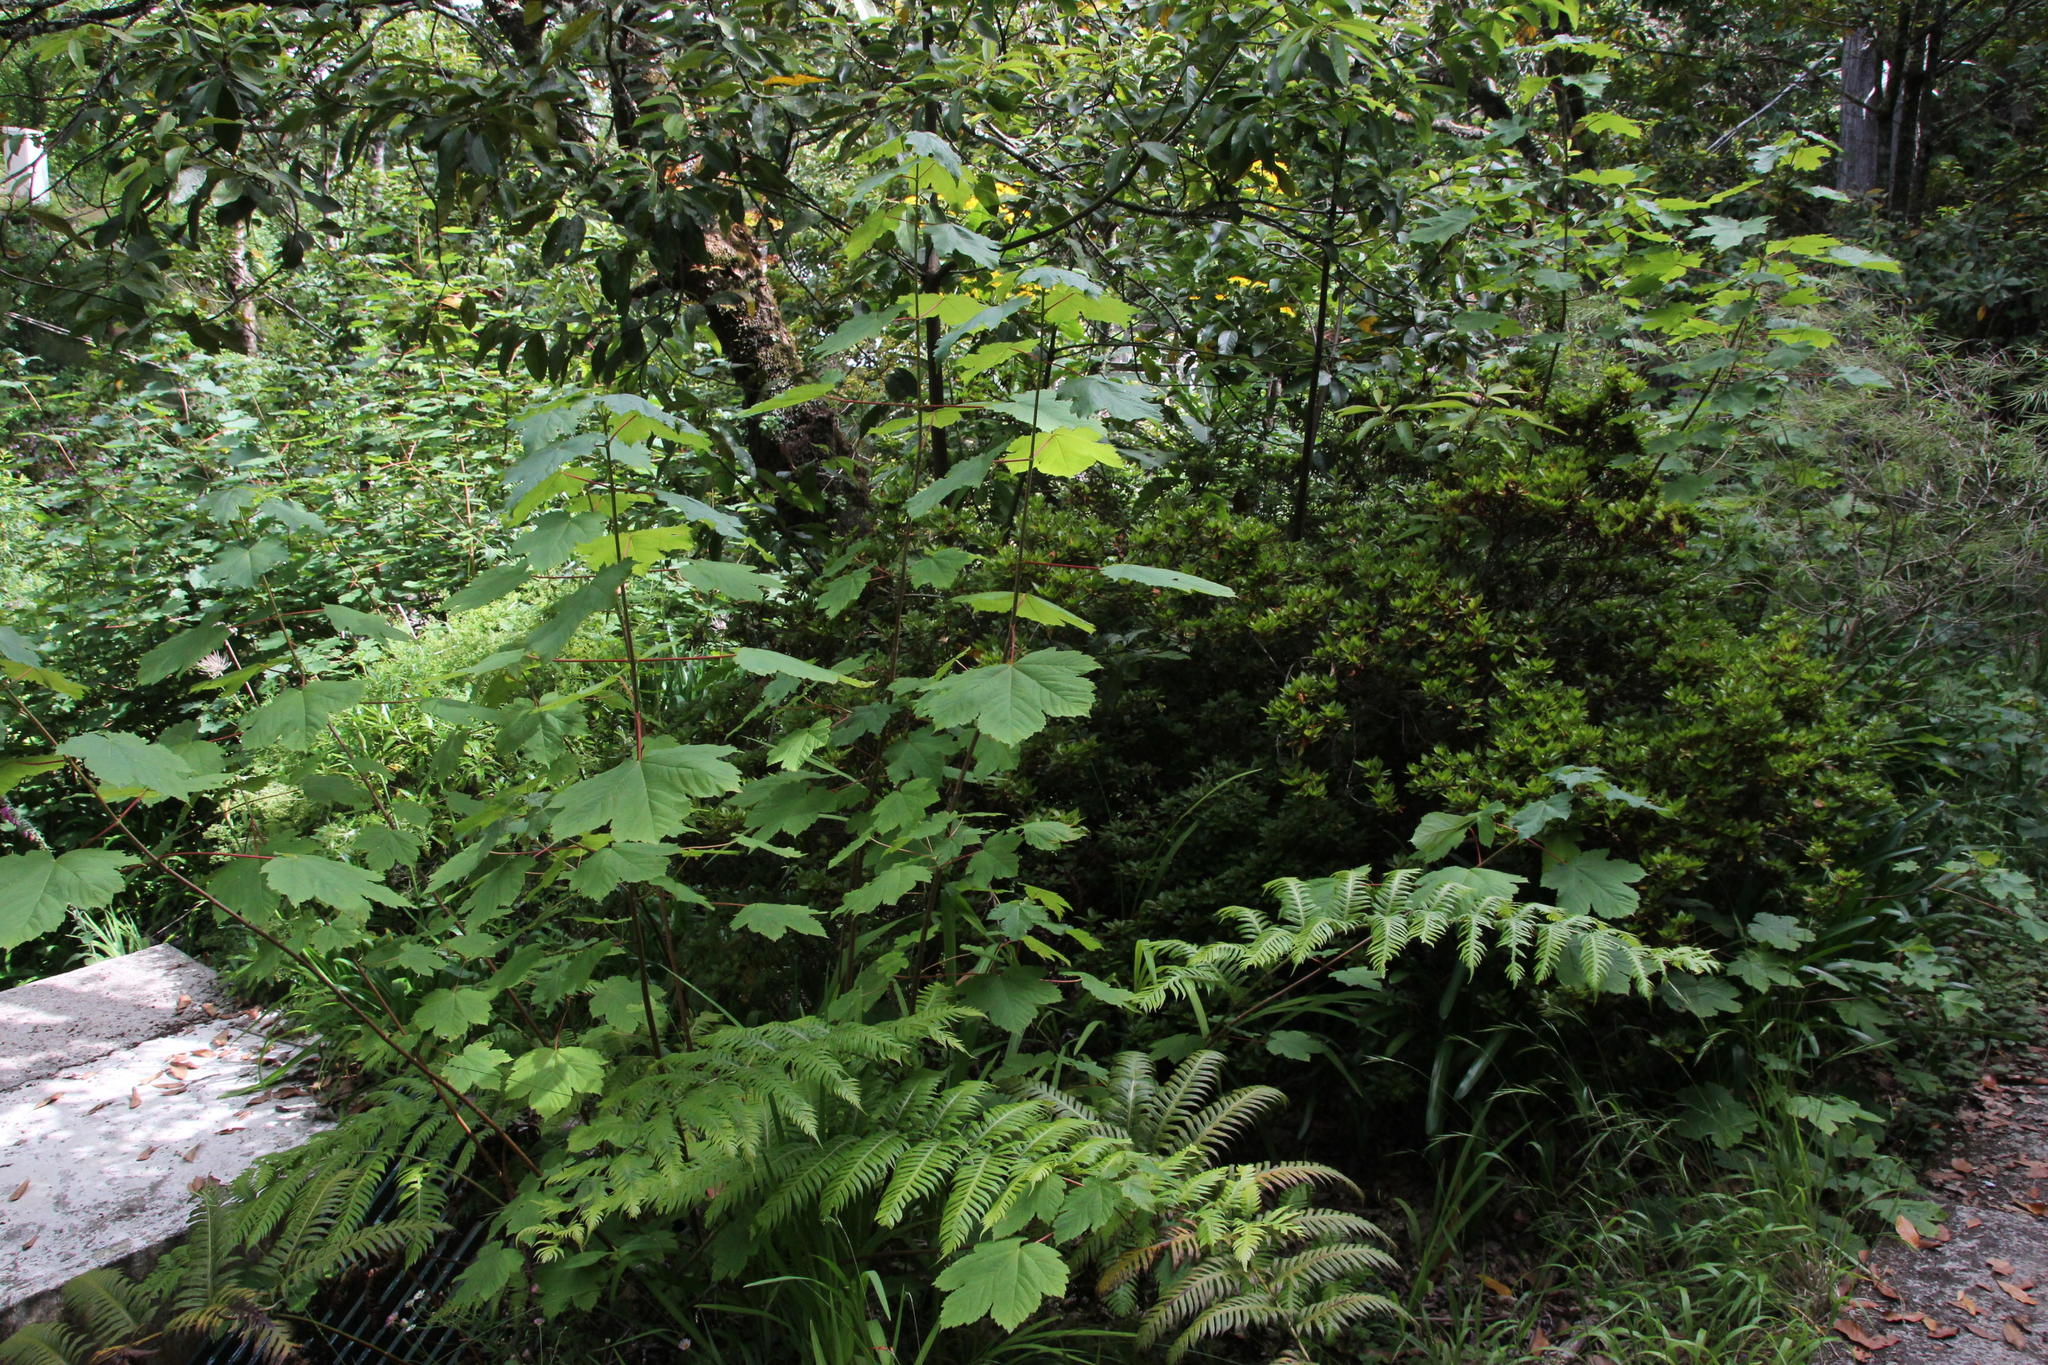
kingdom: Plantae
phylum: Tracheophyta
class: Magnoliopsida
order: Sapindales
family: Sapindaceae
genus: Acer
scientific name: Acer pseudoplatanus
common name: Sycamore
